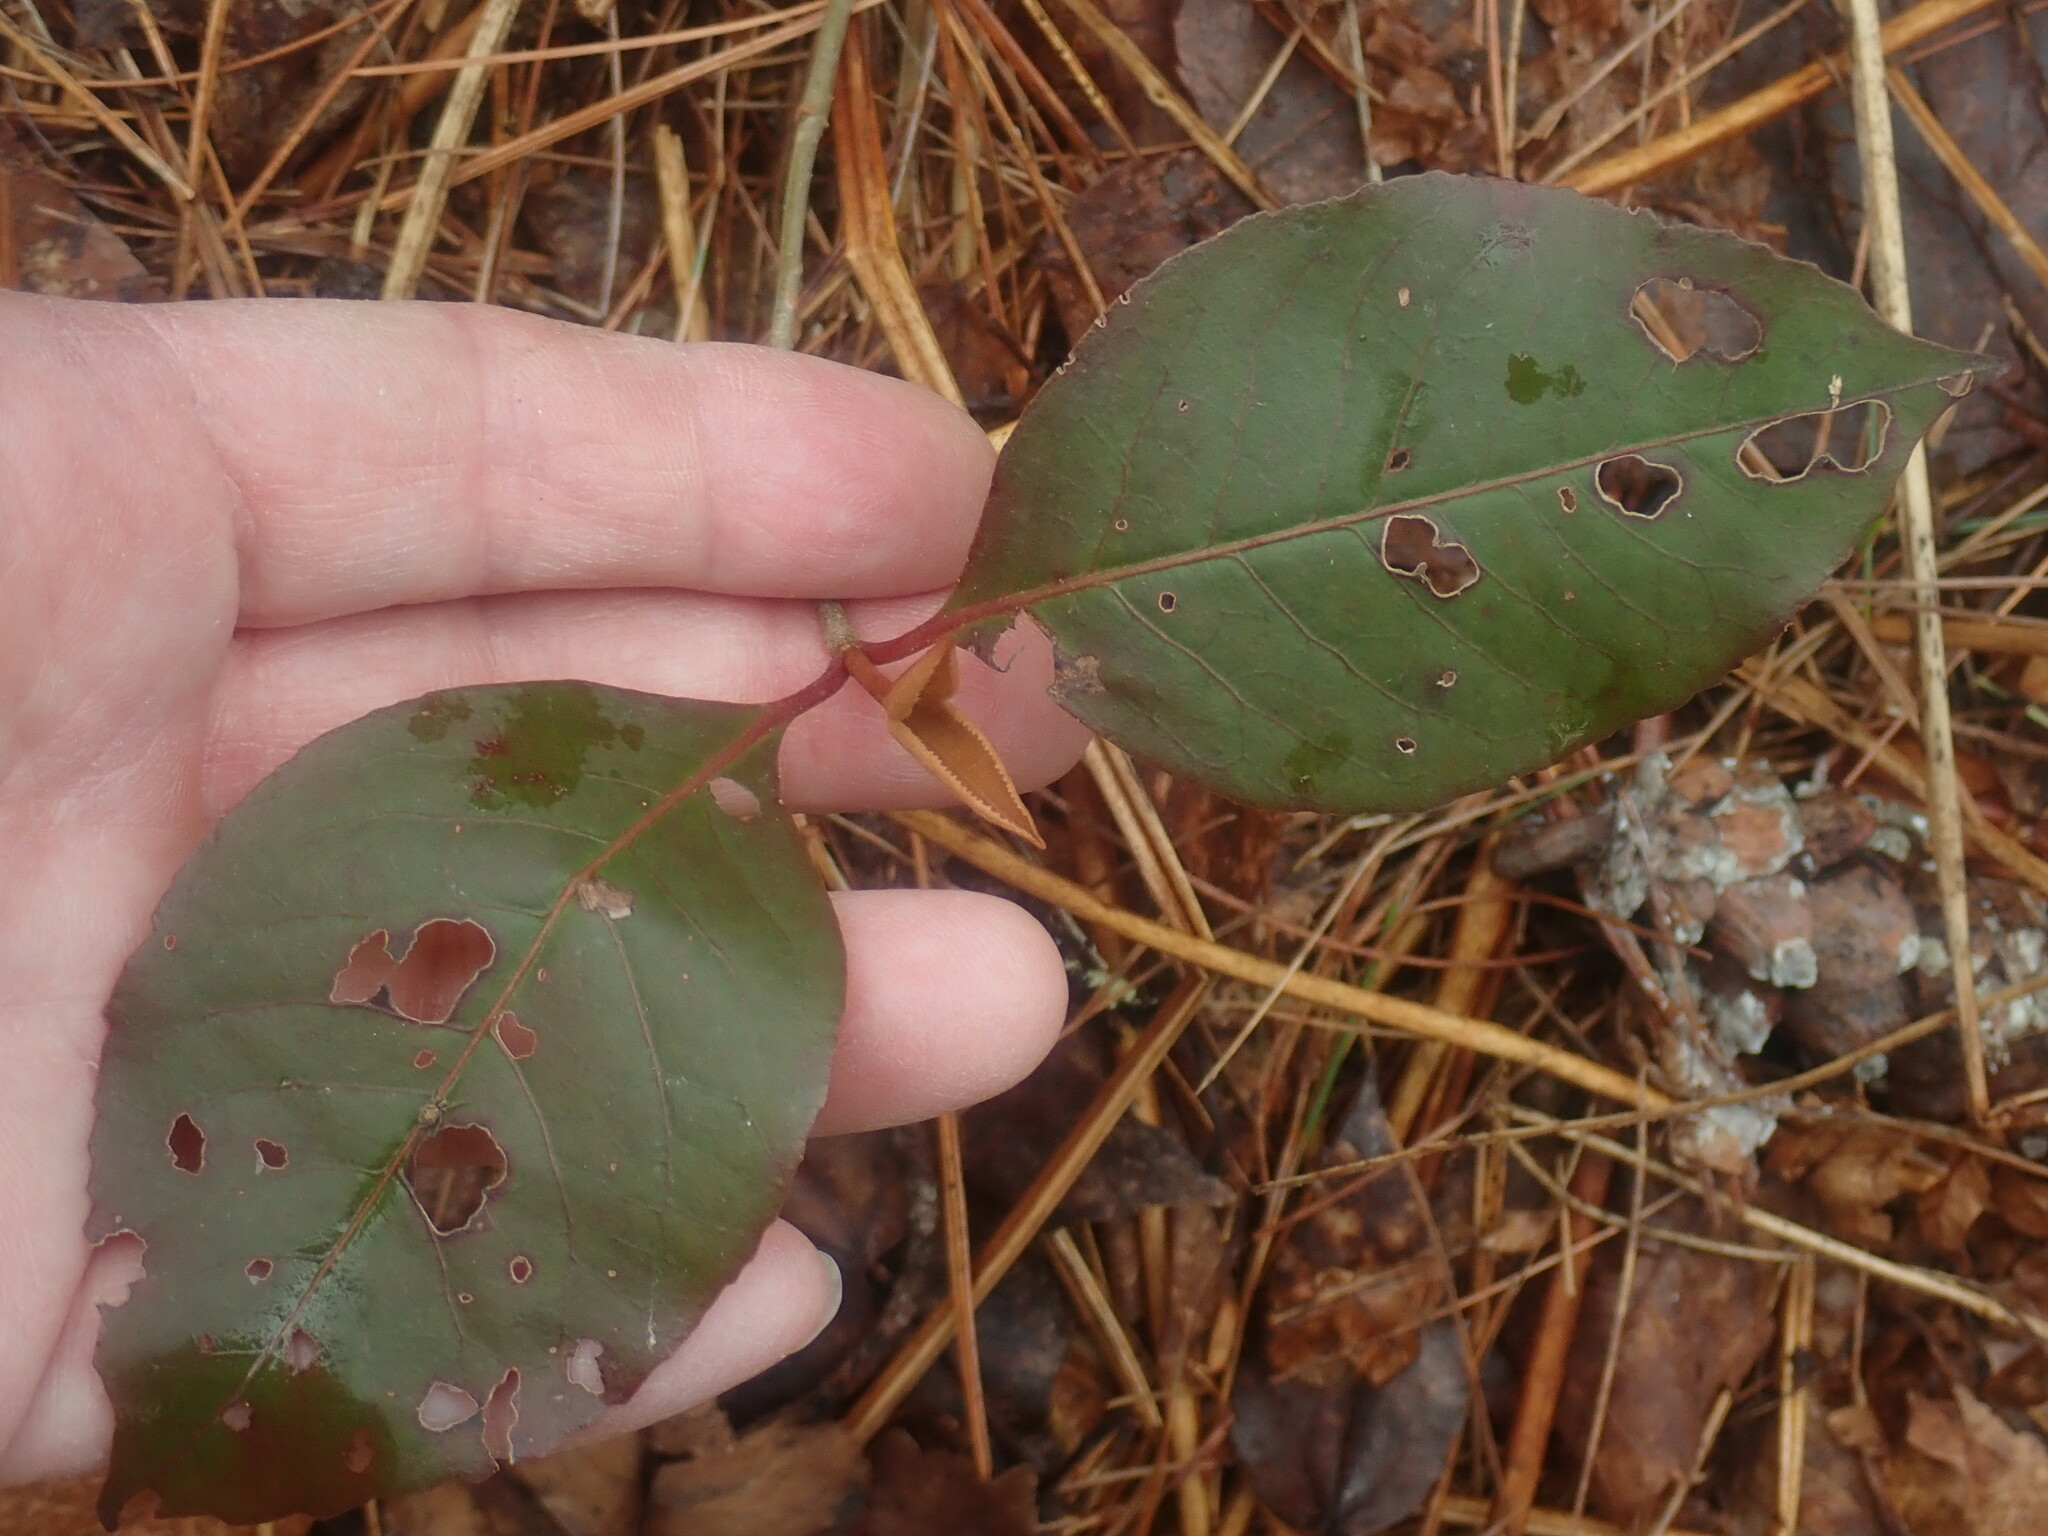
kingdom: Plantae
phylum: Tracheophyta
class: Magnoliopsida
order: Dipsacales
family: Viburnaceae
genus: Viburnum
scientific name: Viburnum cassinoides
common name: Swamp haw
